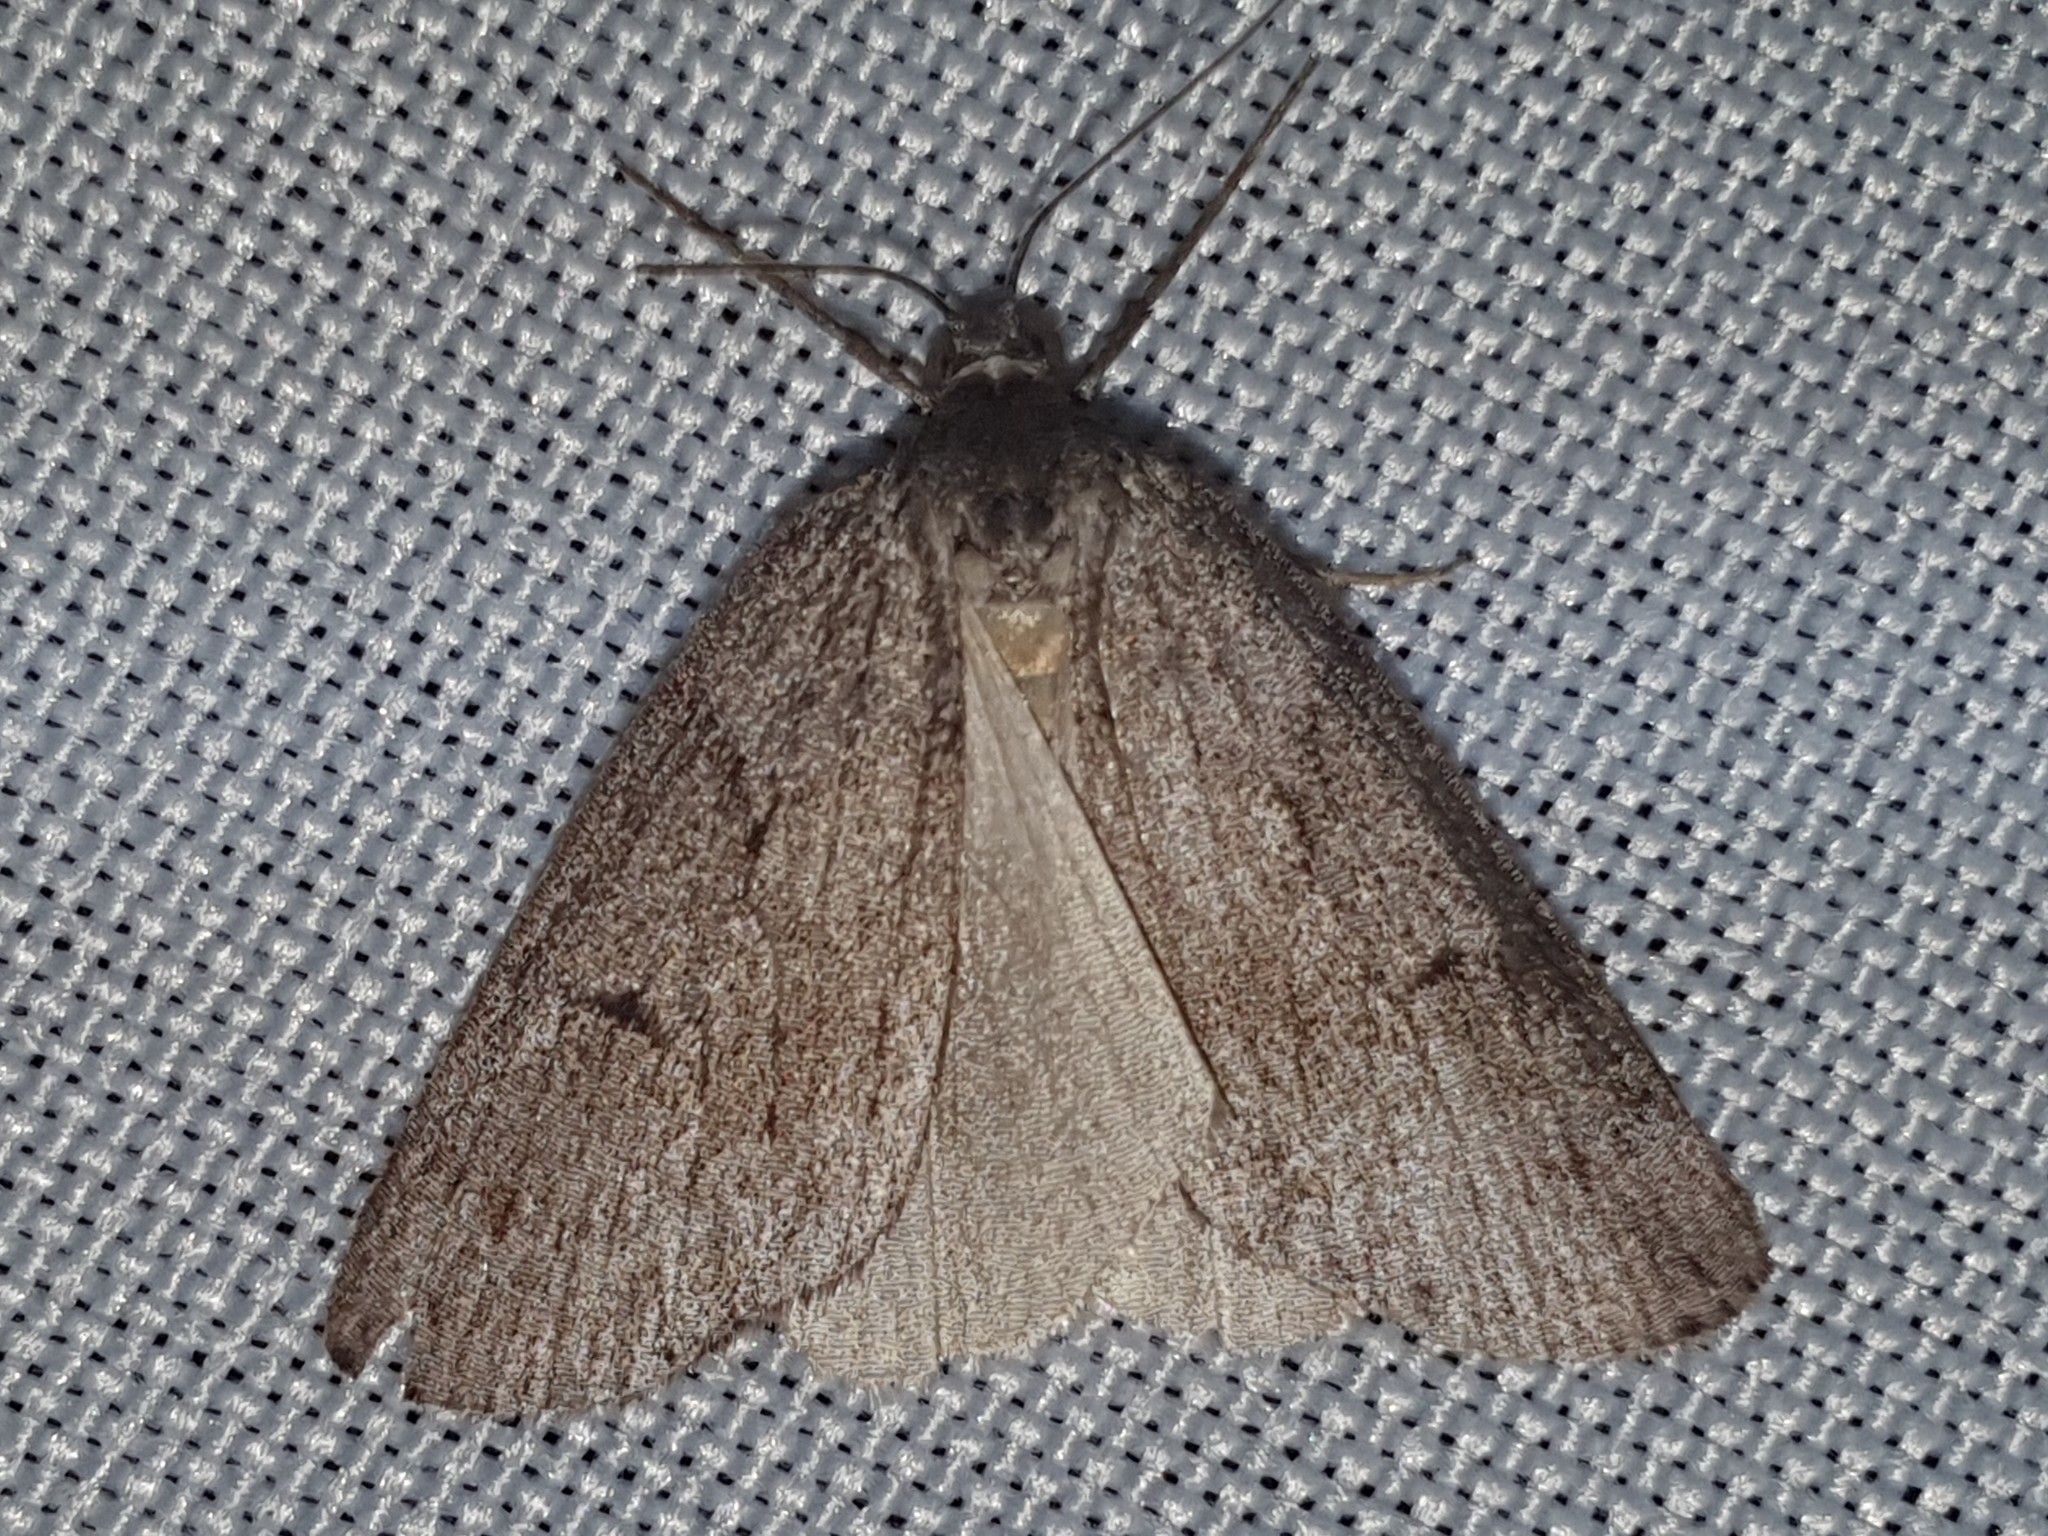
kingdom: Animalia
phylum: Arthropoda
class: Insecta
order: Lepidoptera
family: Geometridae
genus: Pachycnemia
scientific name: Pachycnemia hippocastanaria
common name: Horse chestnut
